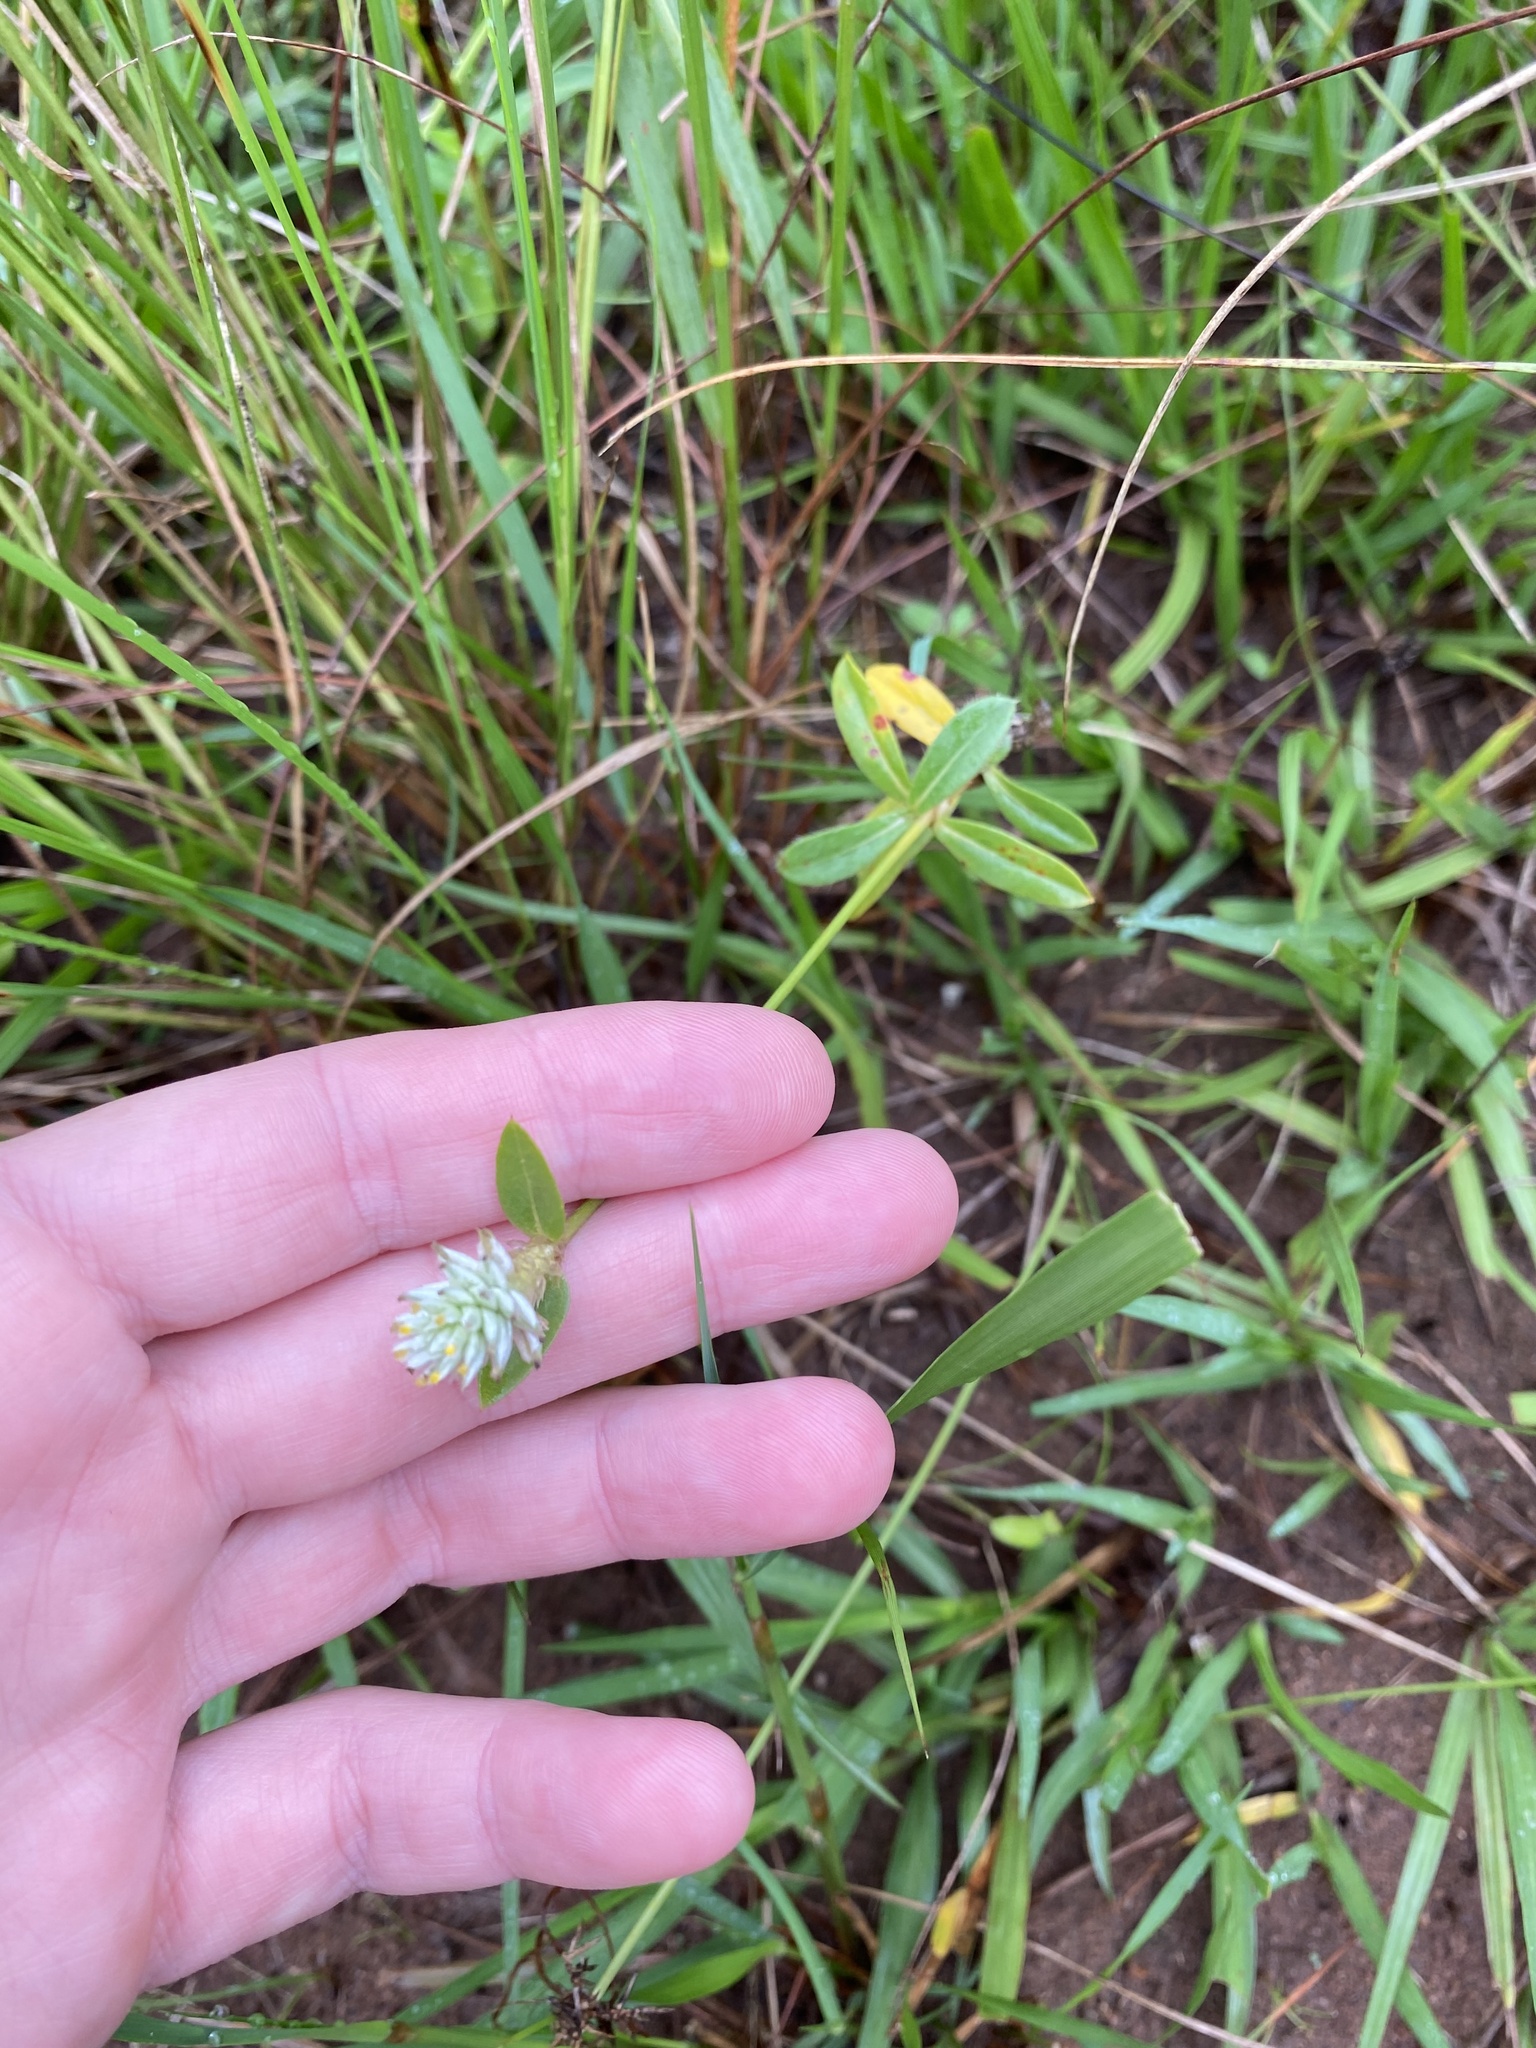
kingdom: Plantae
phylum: Tracheophyta
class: Magnoliopsida
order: Caryophyllales
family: Amaranthaceae
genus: Gomphrena
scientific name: Gomphrena celosioides
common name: Gomphrena-weed
